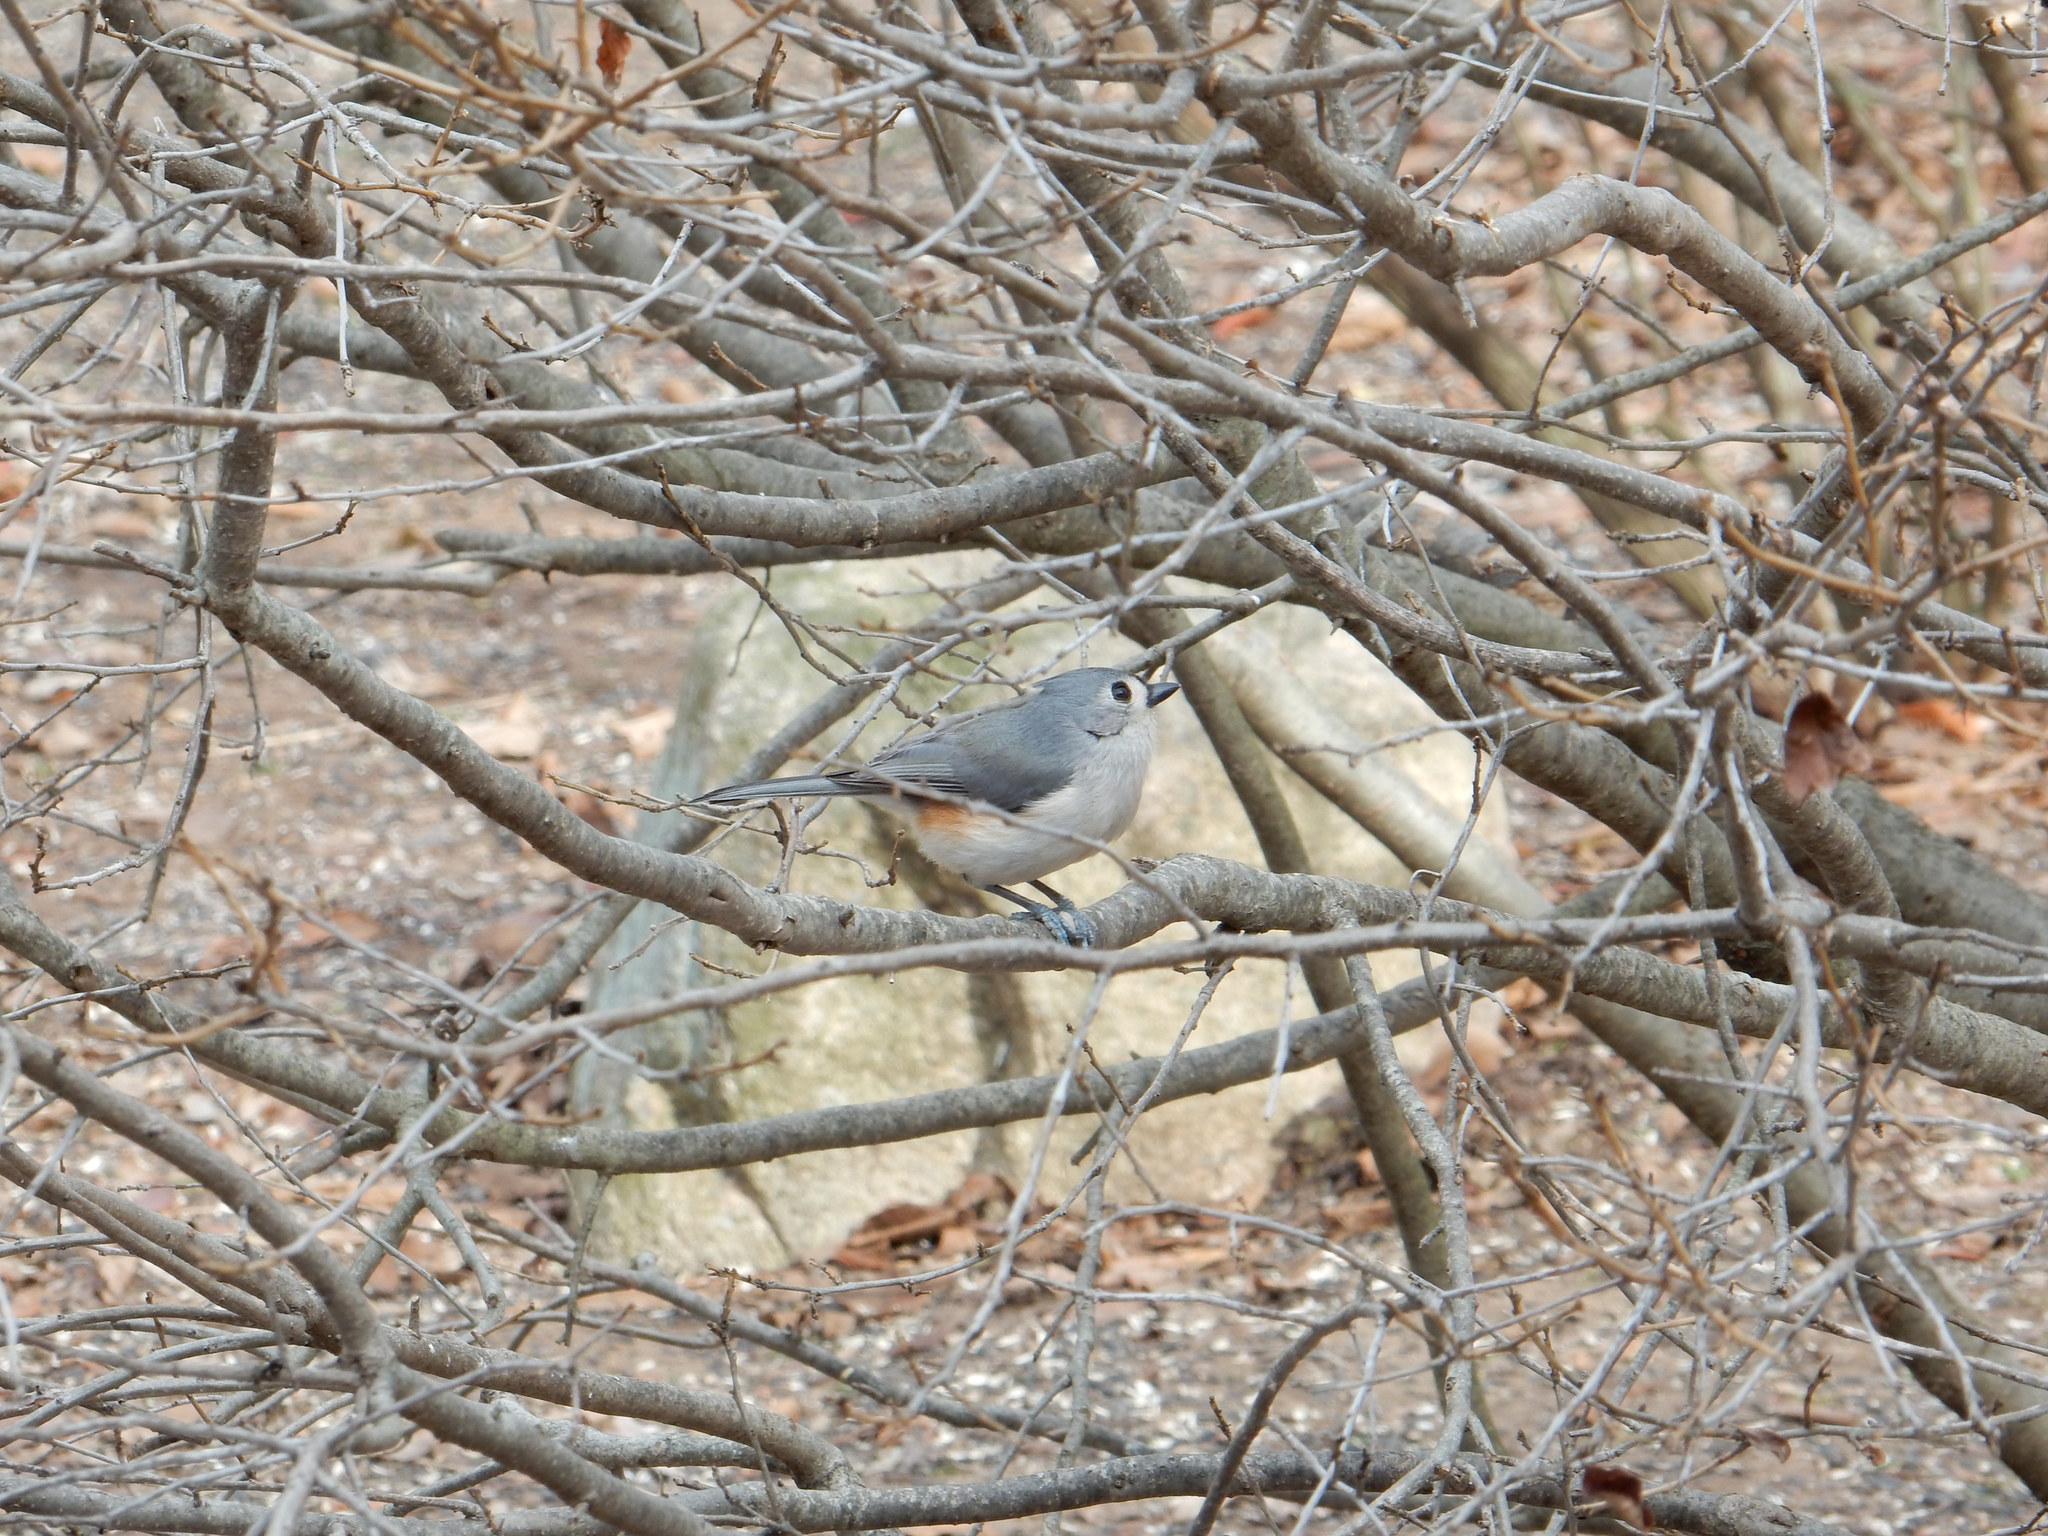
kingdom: Animalia
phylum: Chordata
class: Aves
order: Passeriformes
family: Paridae
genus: Baeolophus
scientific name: Baeolophus bicolor
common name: Tufted titmouse
